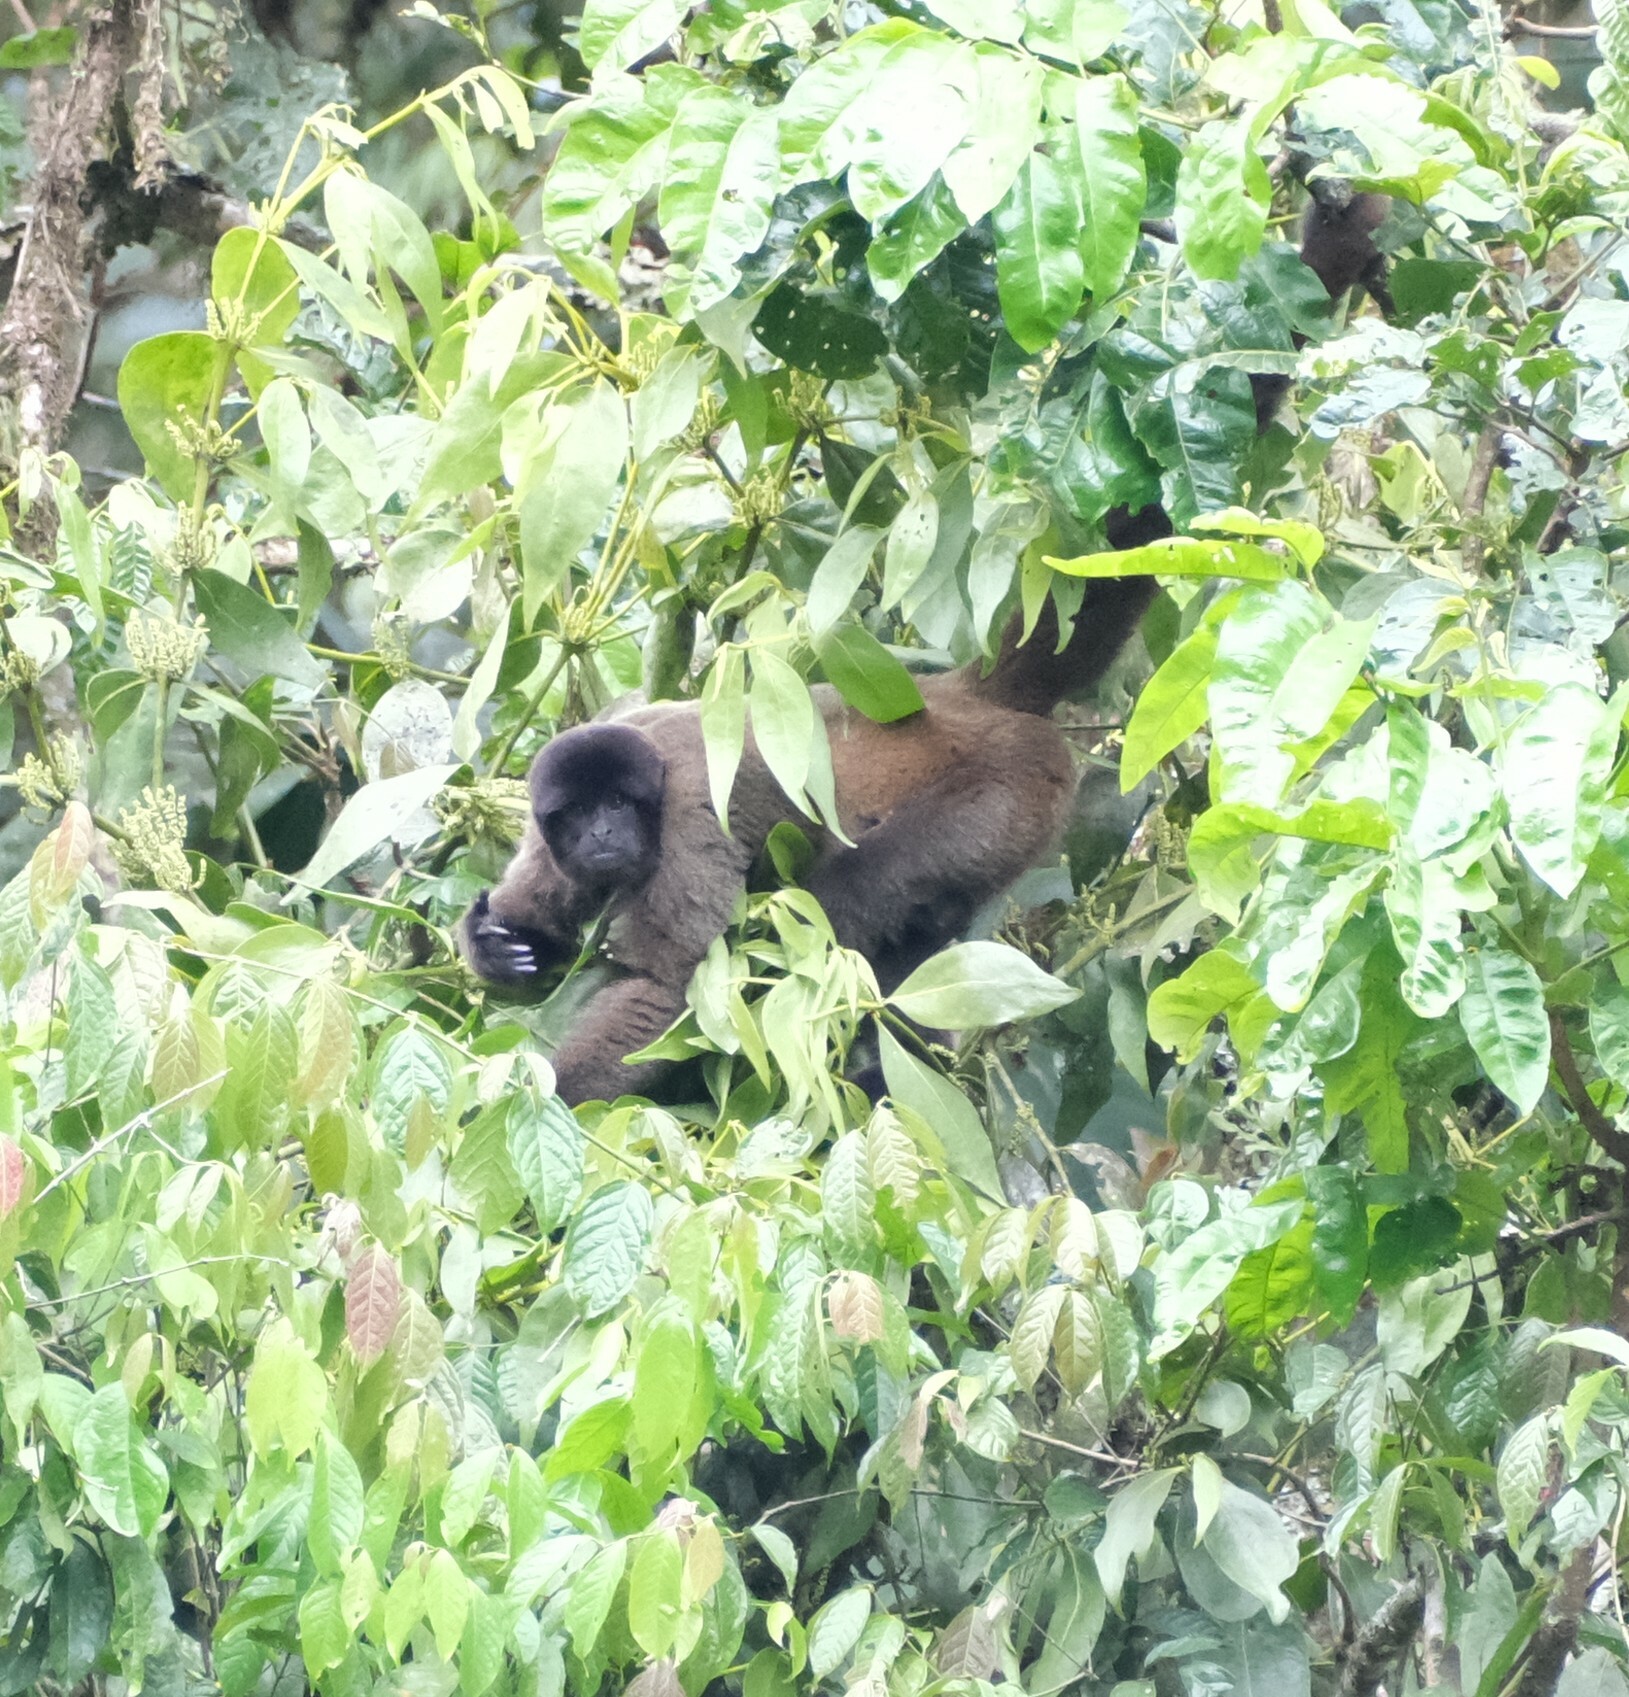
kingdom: Animalia
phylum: Chordata
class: Mammalia
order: Primates
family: Atelidae
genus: Lagothrix
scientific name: Lagothrix lagothricha
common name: Brown woolly monkey
